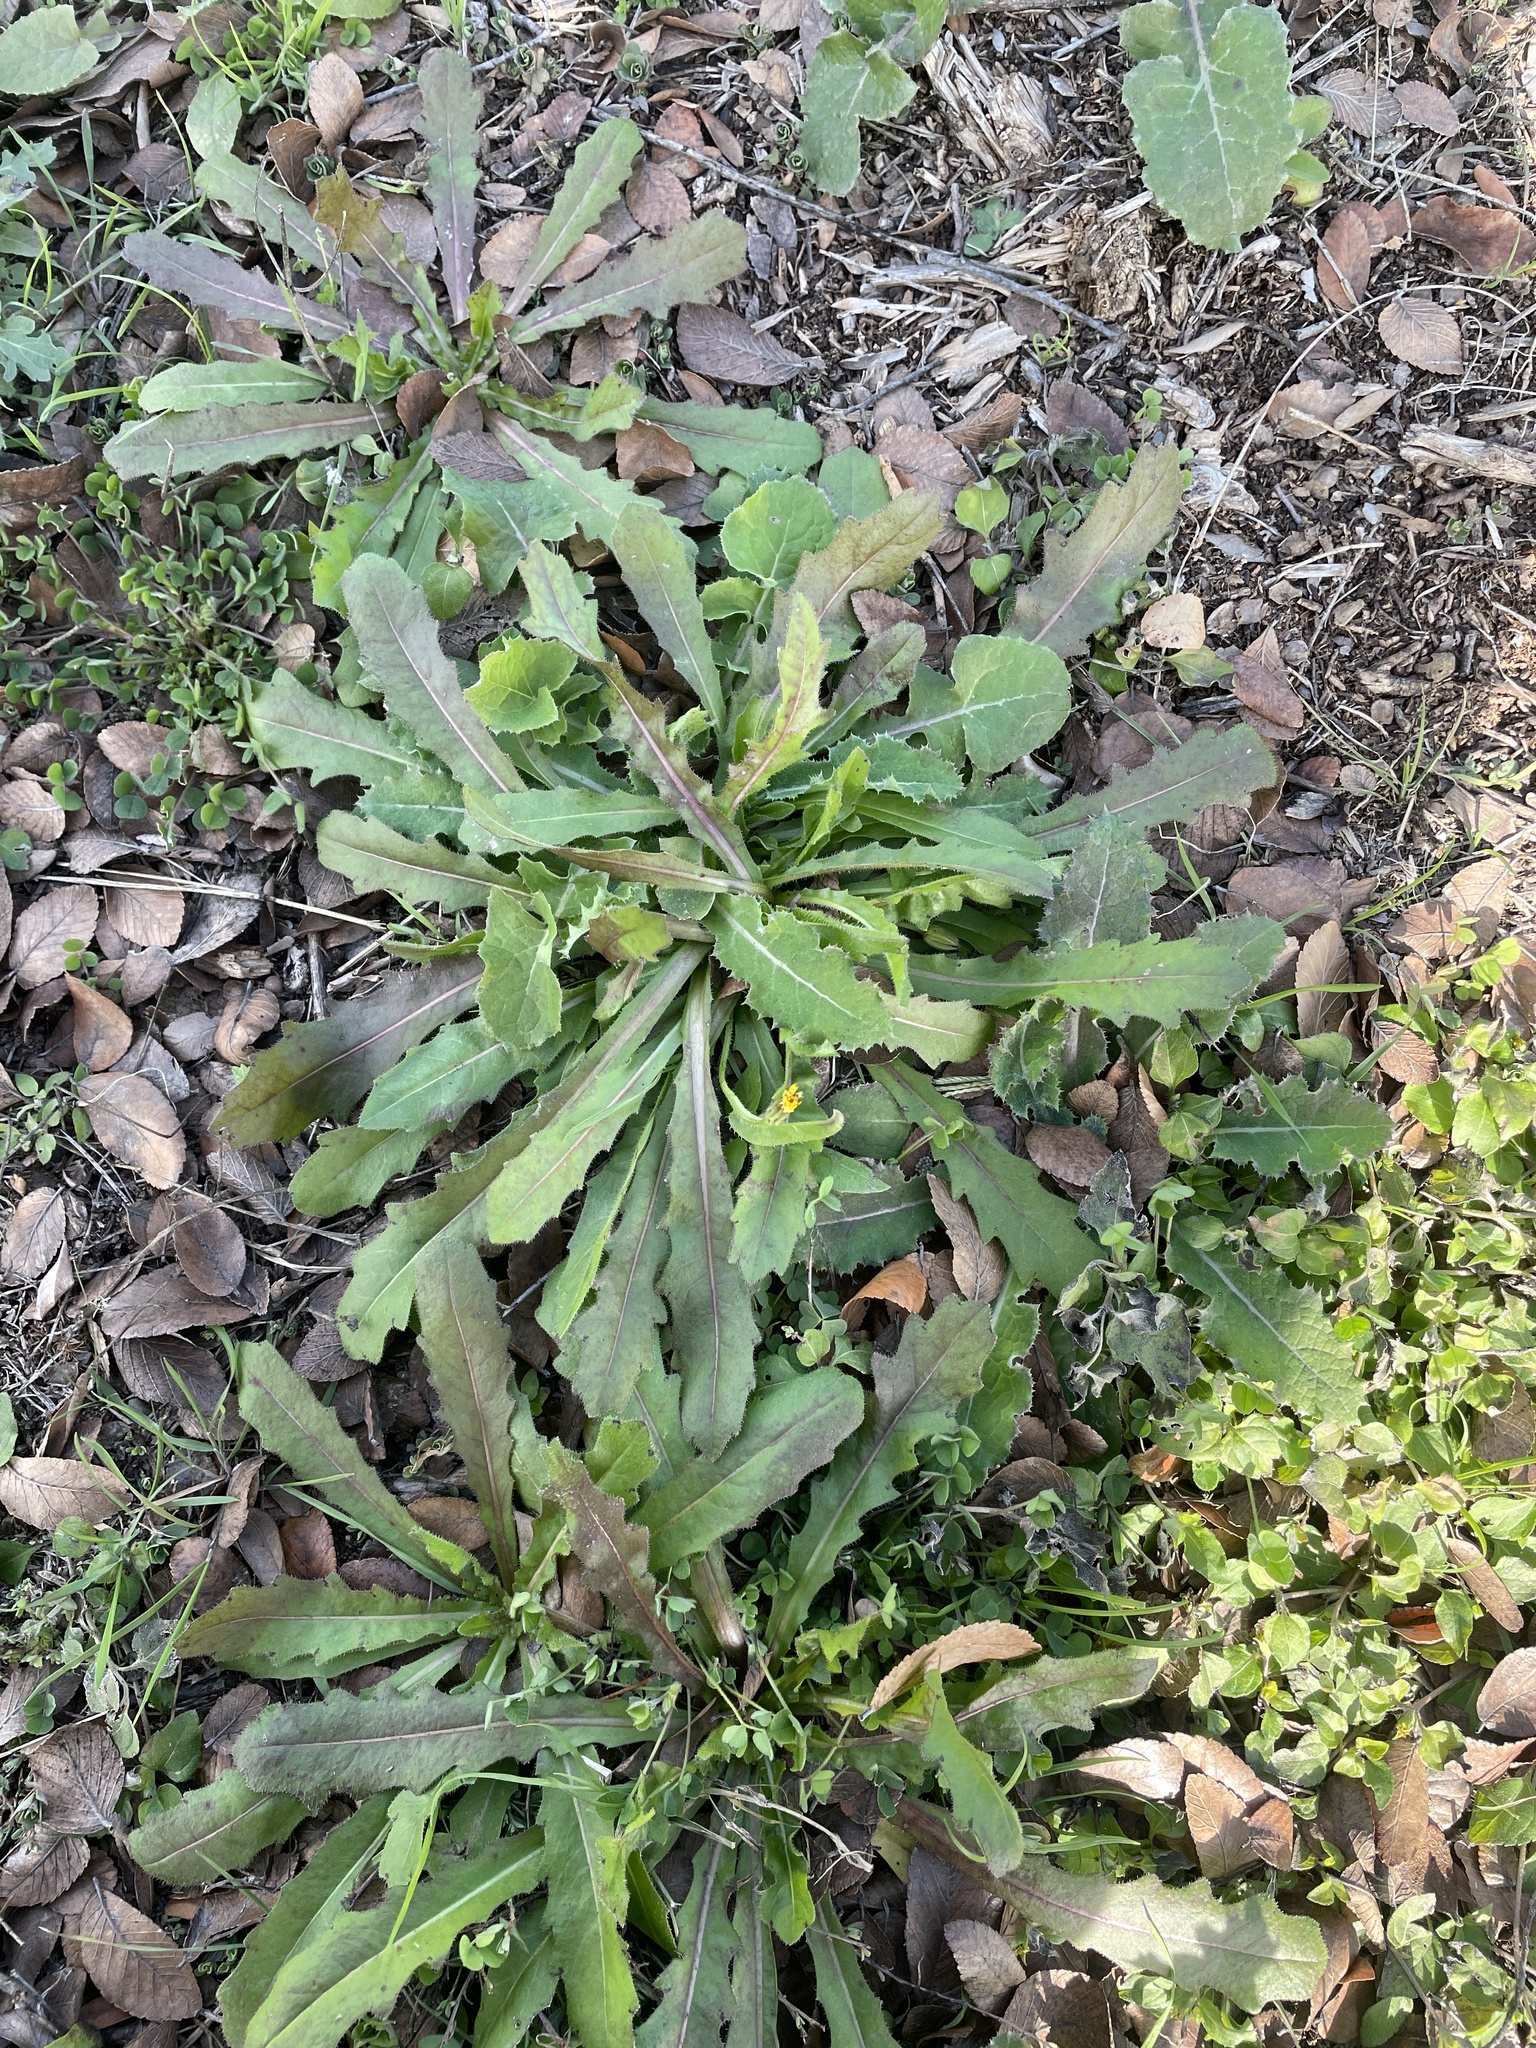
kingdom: Plantae
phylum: Tracheophyta
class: Magnoliopsida
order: Asterales
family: Asteraceae
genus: Hedypnois
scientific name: Hedypnois rhagadioloides
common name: Cretan weed
